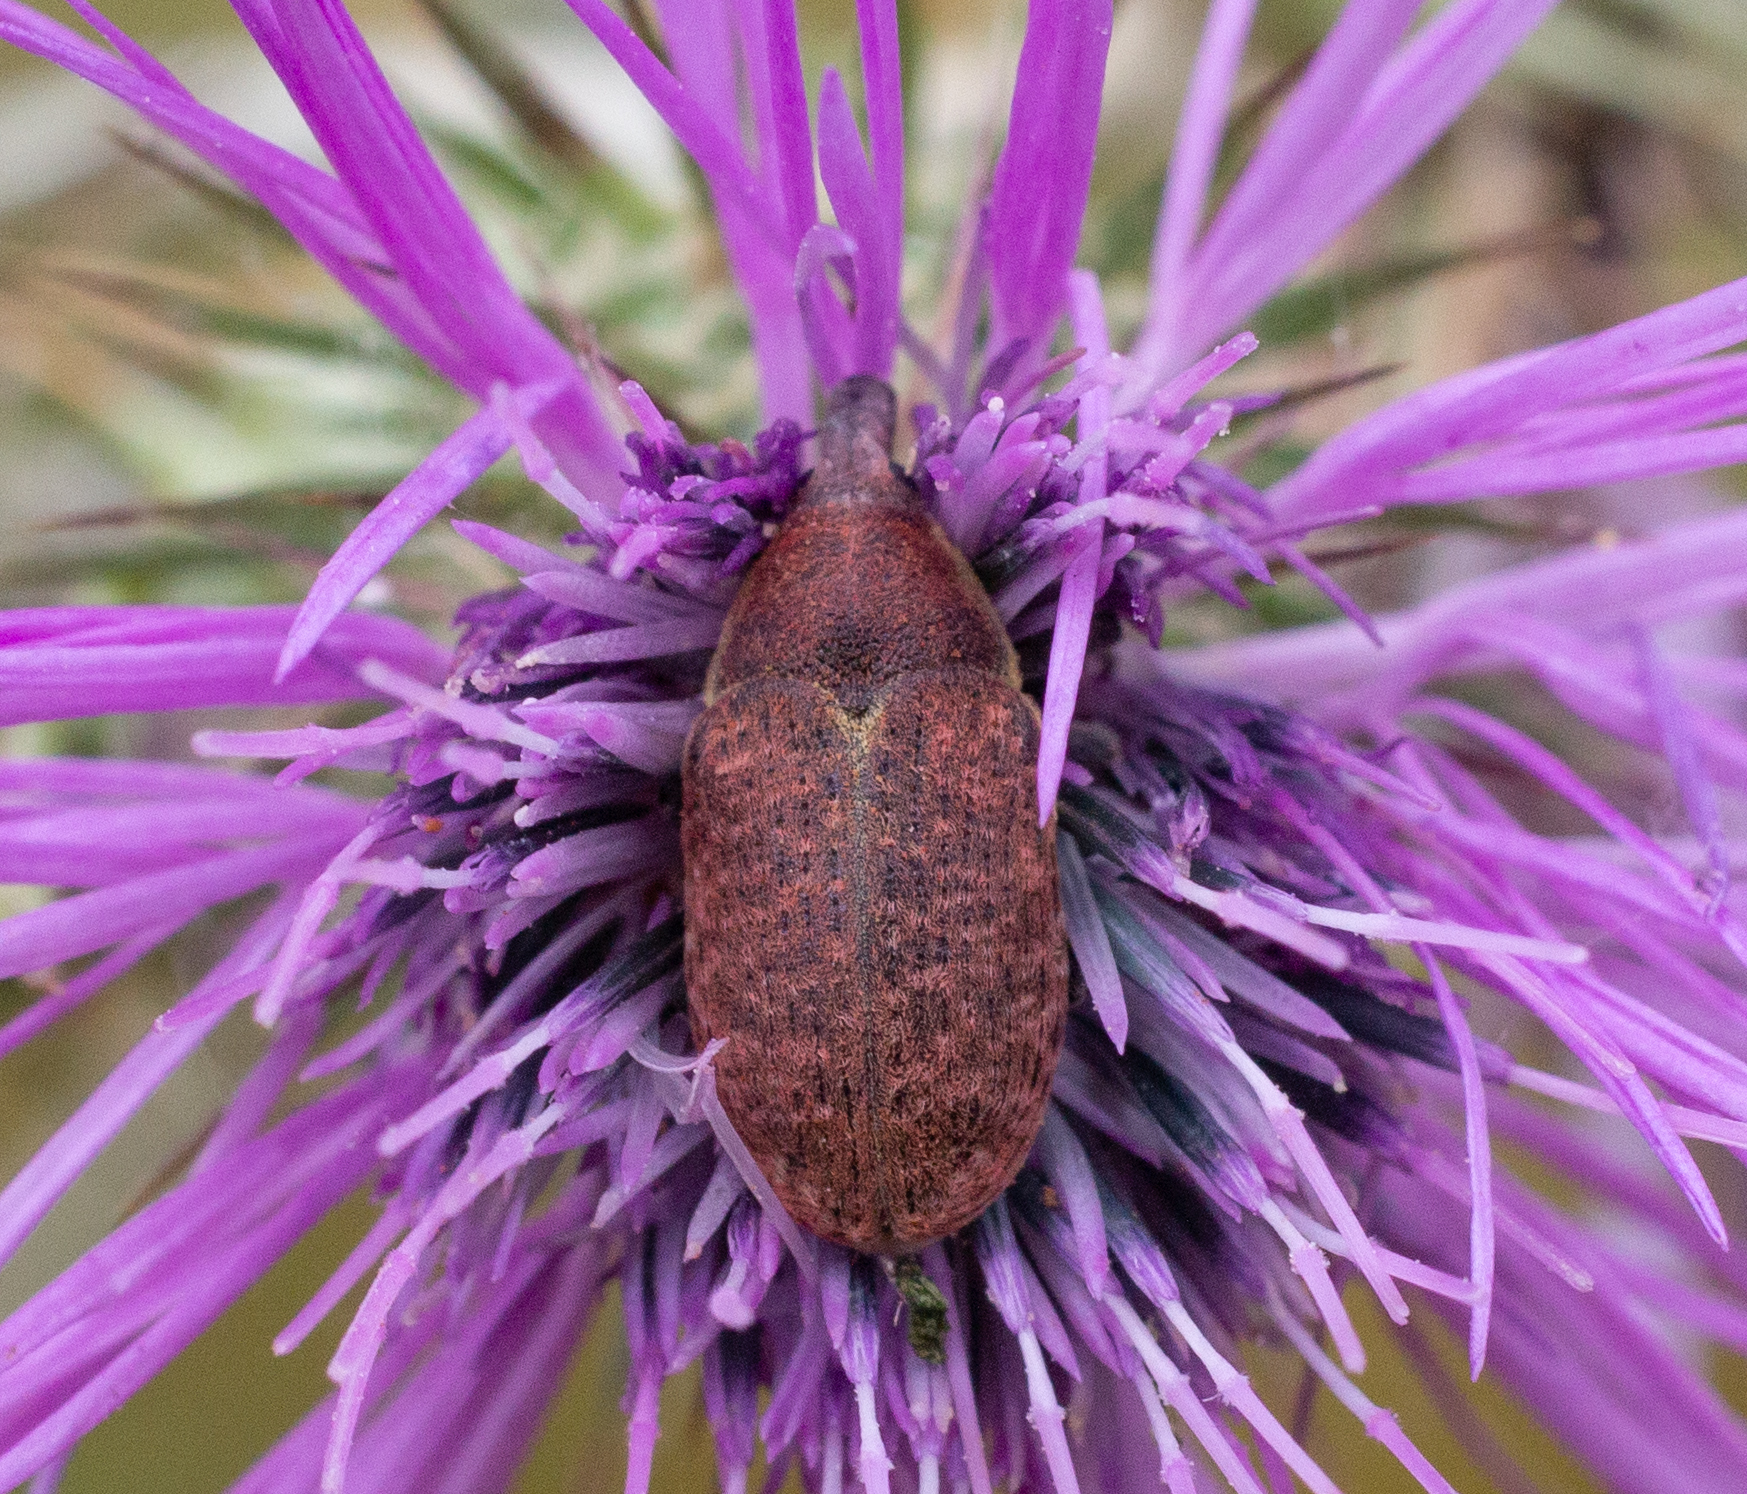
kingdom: Animalia
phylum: Arthropoda
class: Insecta
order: Coleoptera
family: Curculionidae
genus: Larinus
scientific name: Larinus lethierryi
